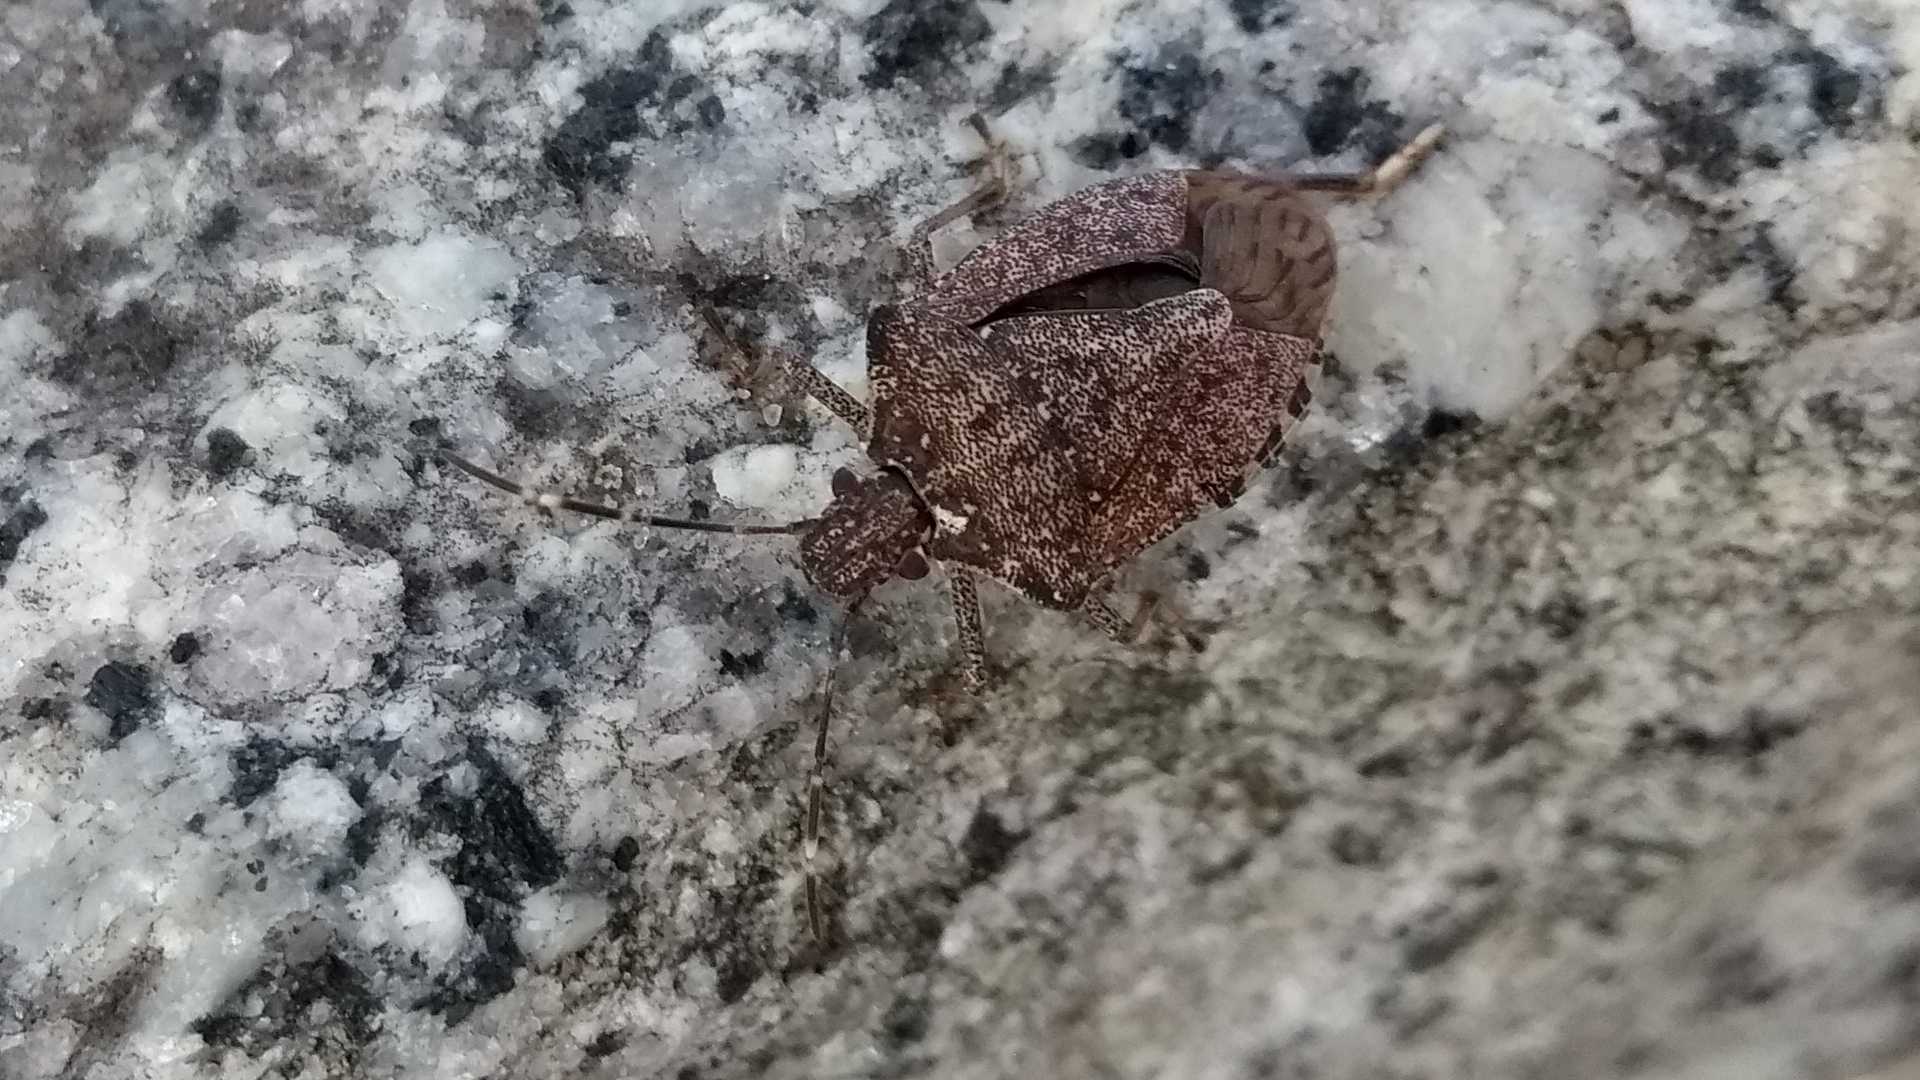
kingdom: Animalia
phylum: Arthropoda
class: Insecta
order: Hemiptera
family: Pentatomidae
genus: Halyomorpha
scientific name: Halyomorpha halys
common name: Brown marmorated stink bug
